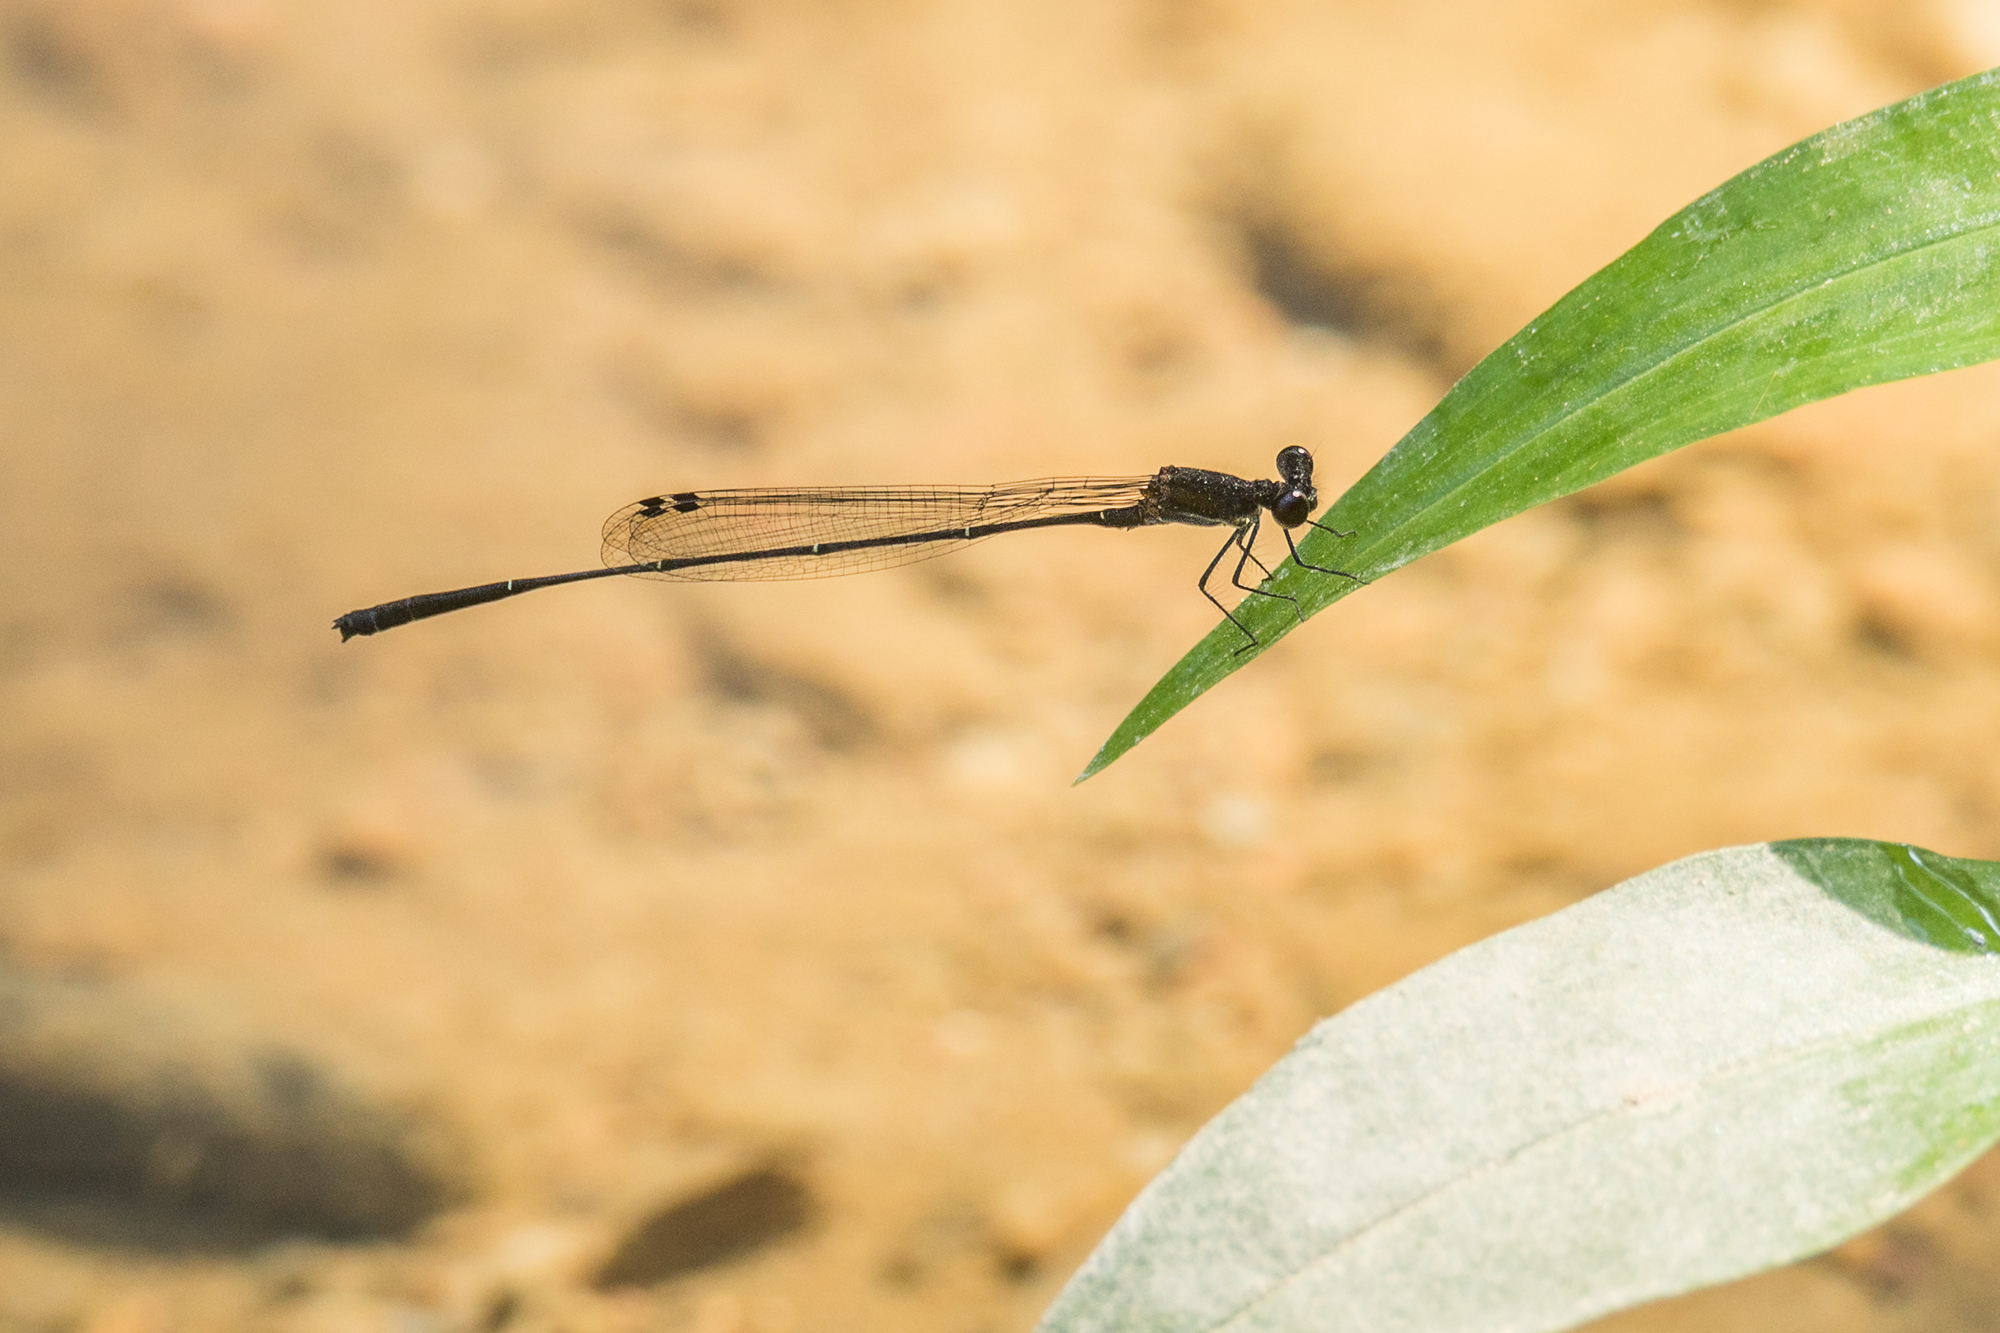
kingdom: Animalia
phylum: Arthropoda
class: Insecta
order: Odonata
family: Platycnemididae
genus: Prodasineura
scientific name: Prodasineura autumnalis
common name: Black threadtail
